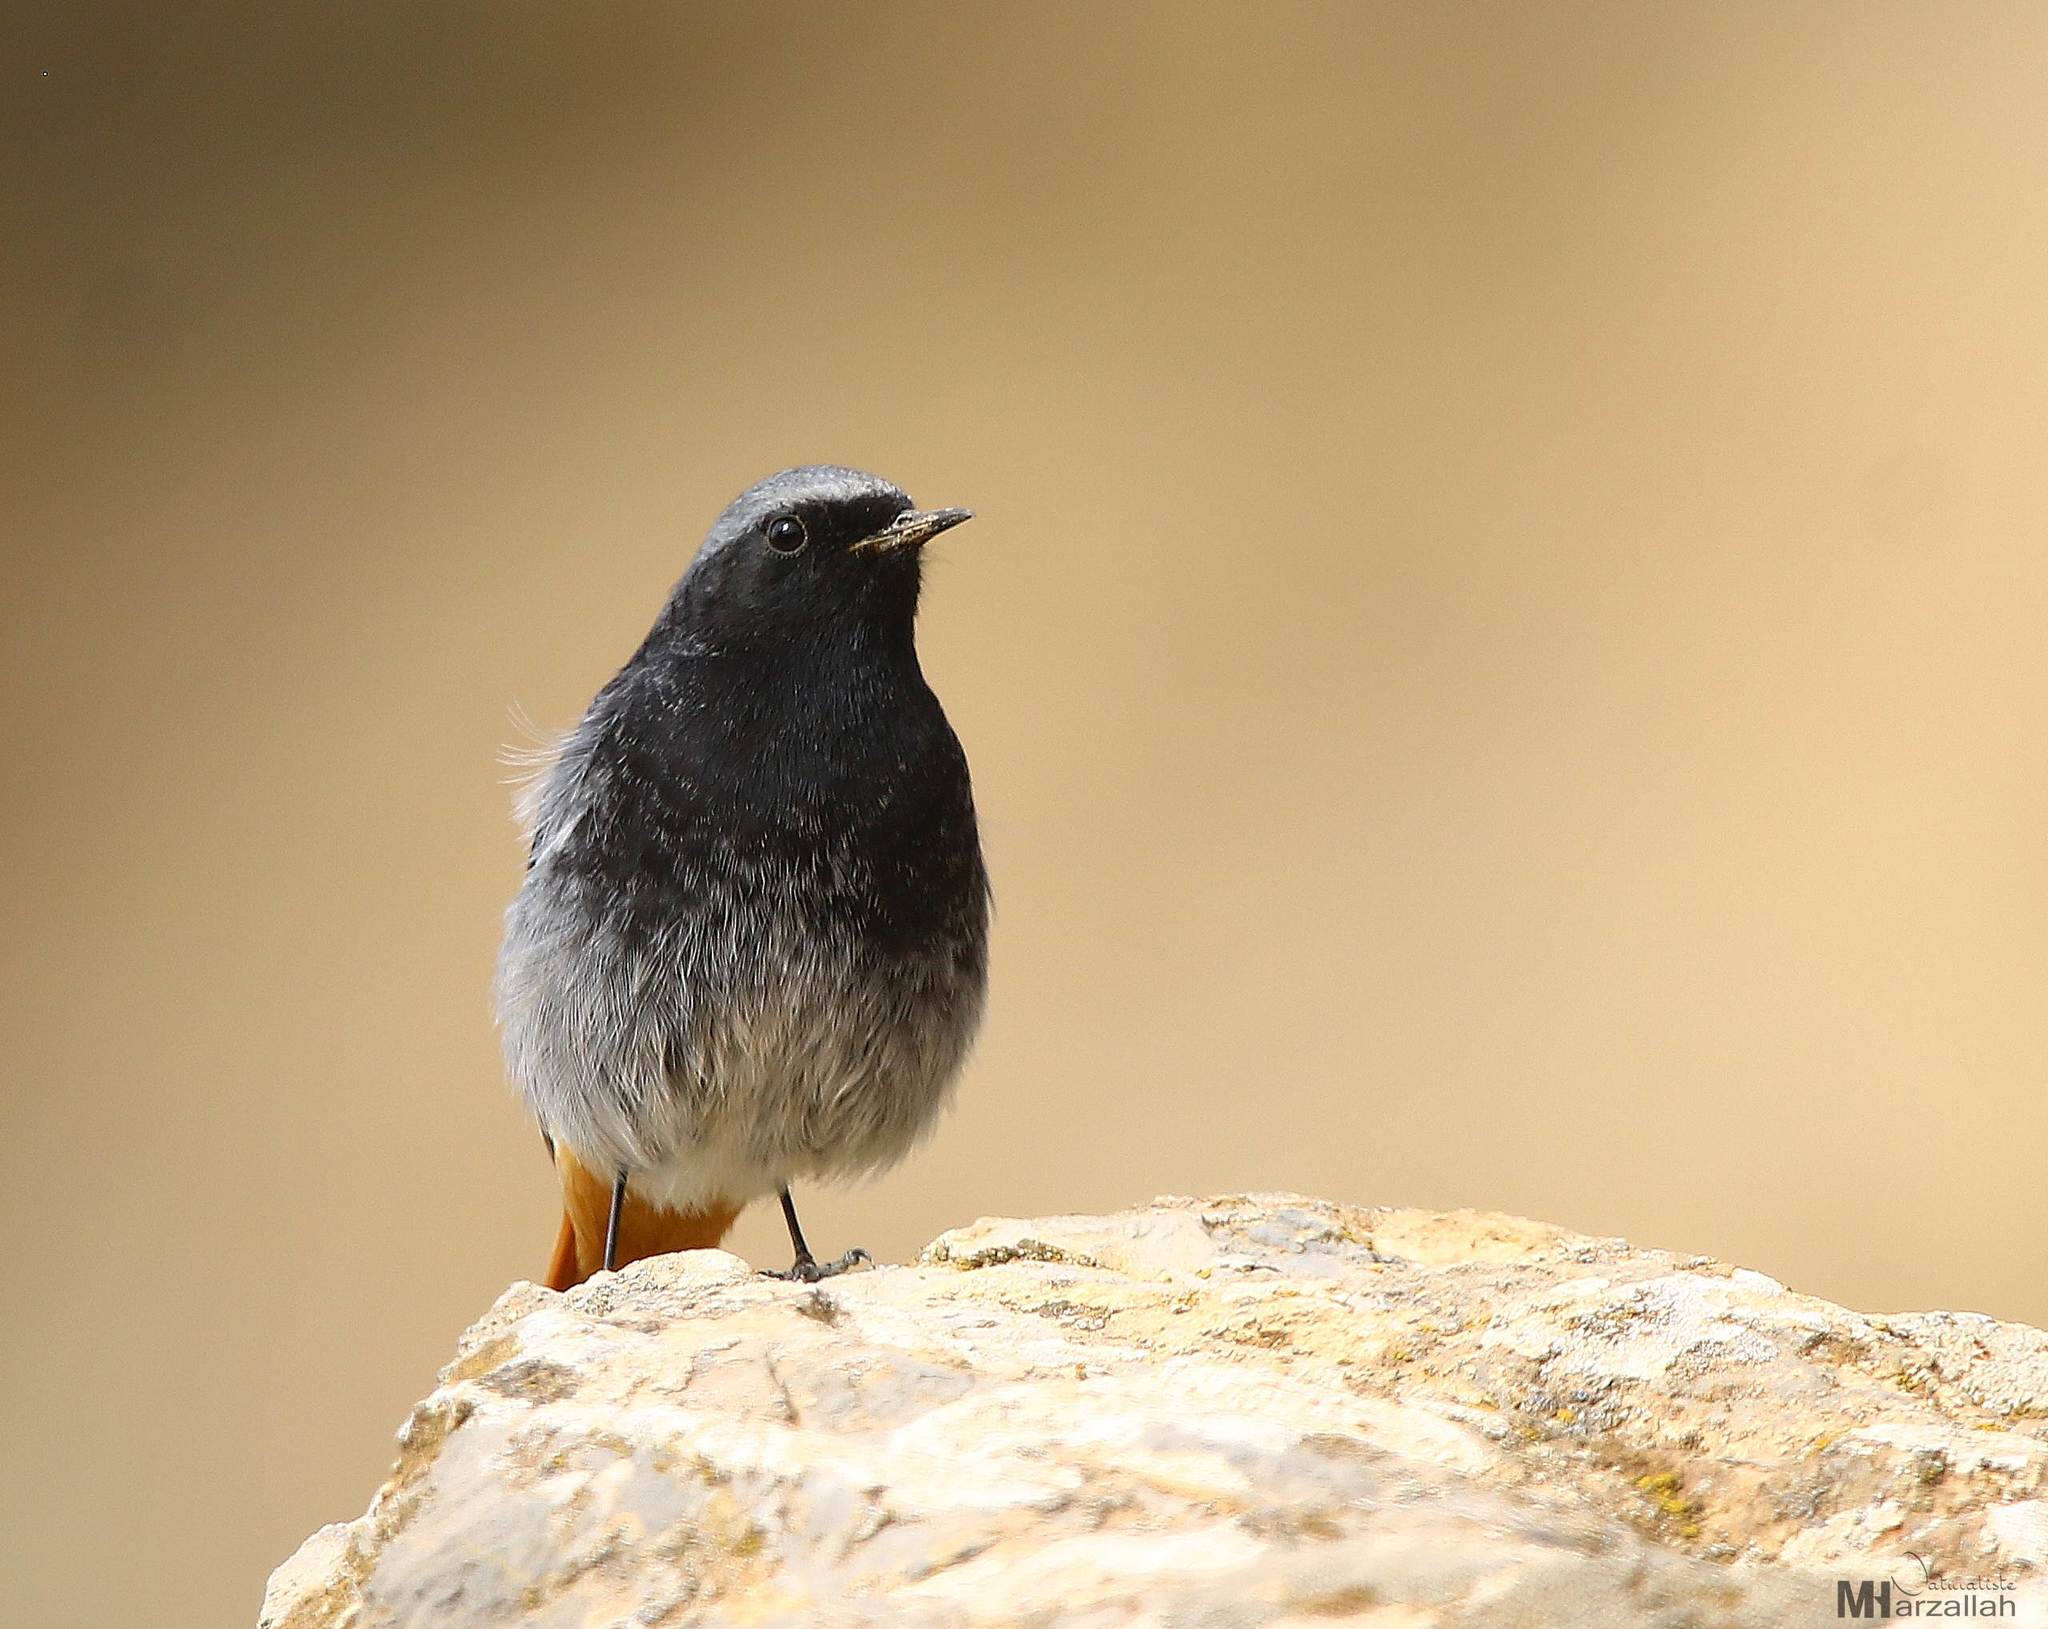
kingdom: Animalia
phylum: Chordata
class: Aves
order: Passeriformes
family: Muscicapidae
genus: Phoenicurus
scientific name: Phoenicurus ochruros
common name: Black redstart
